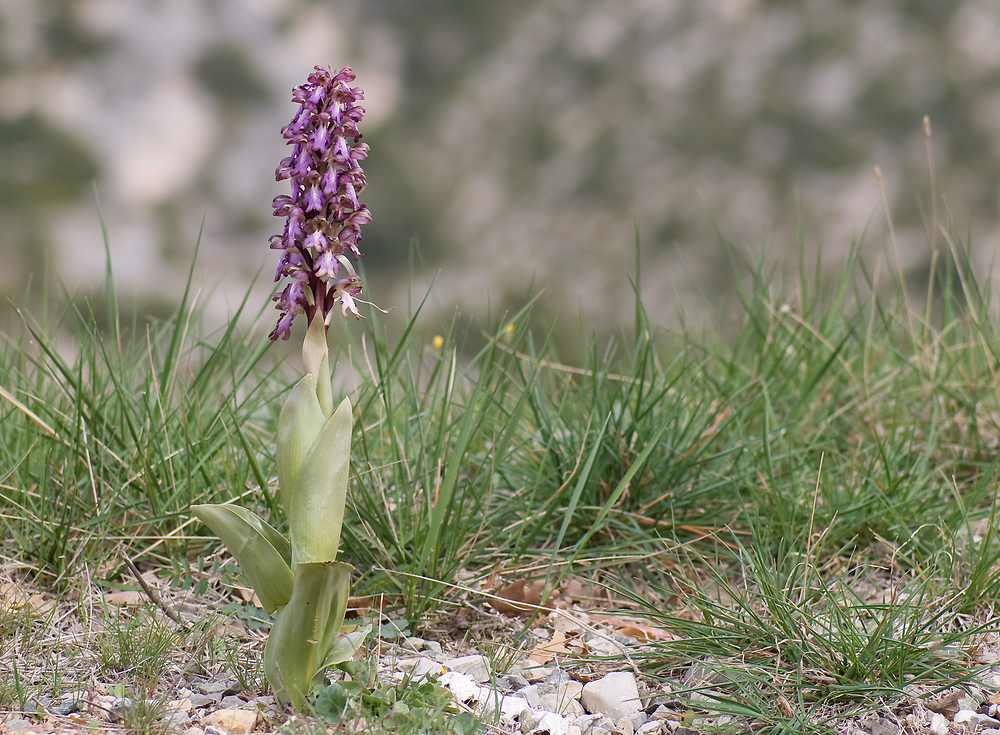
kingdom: Plantae
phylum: Tracheophyta
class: Liliopsida
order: Asparagales
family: Orchidaceae
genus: Himantoglossum
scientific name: Himantoglossum robertianum
